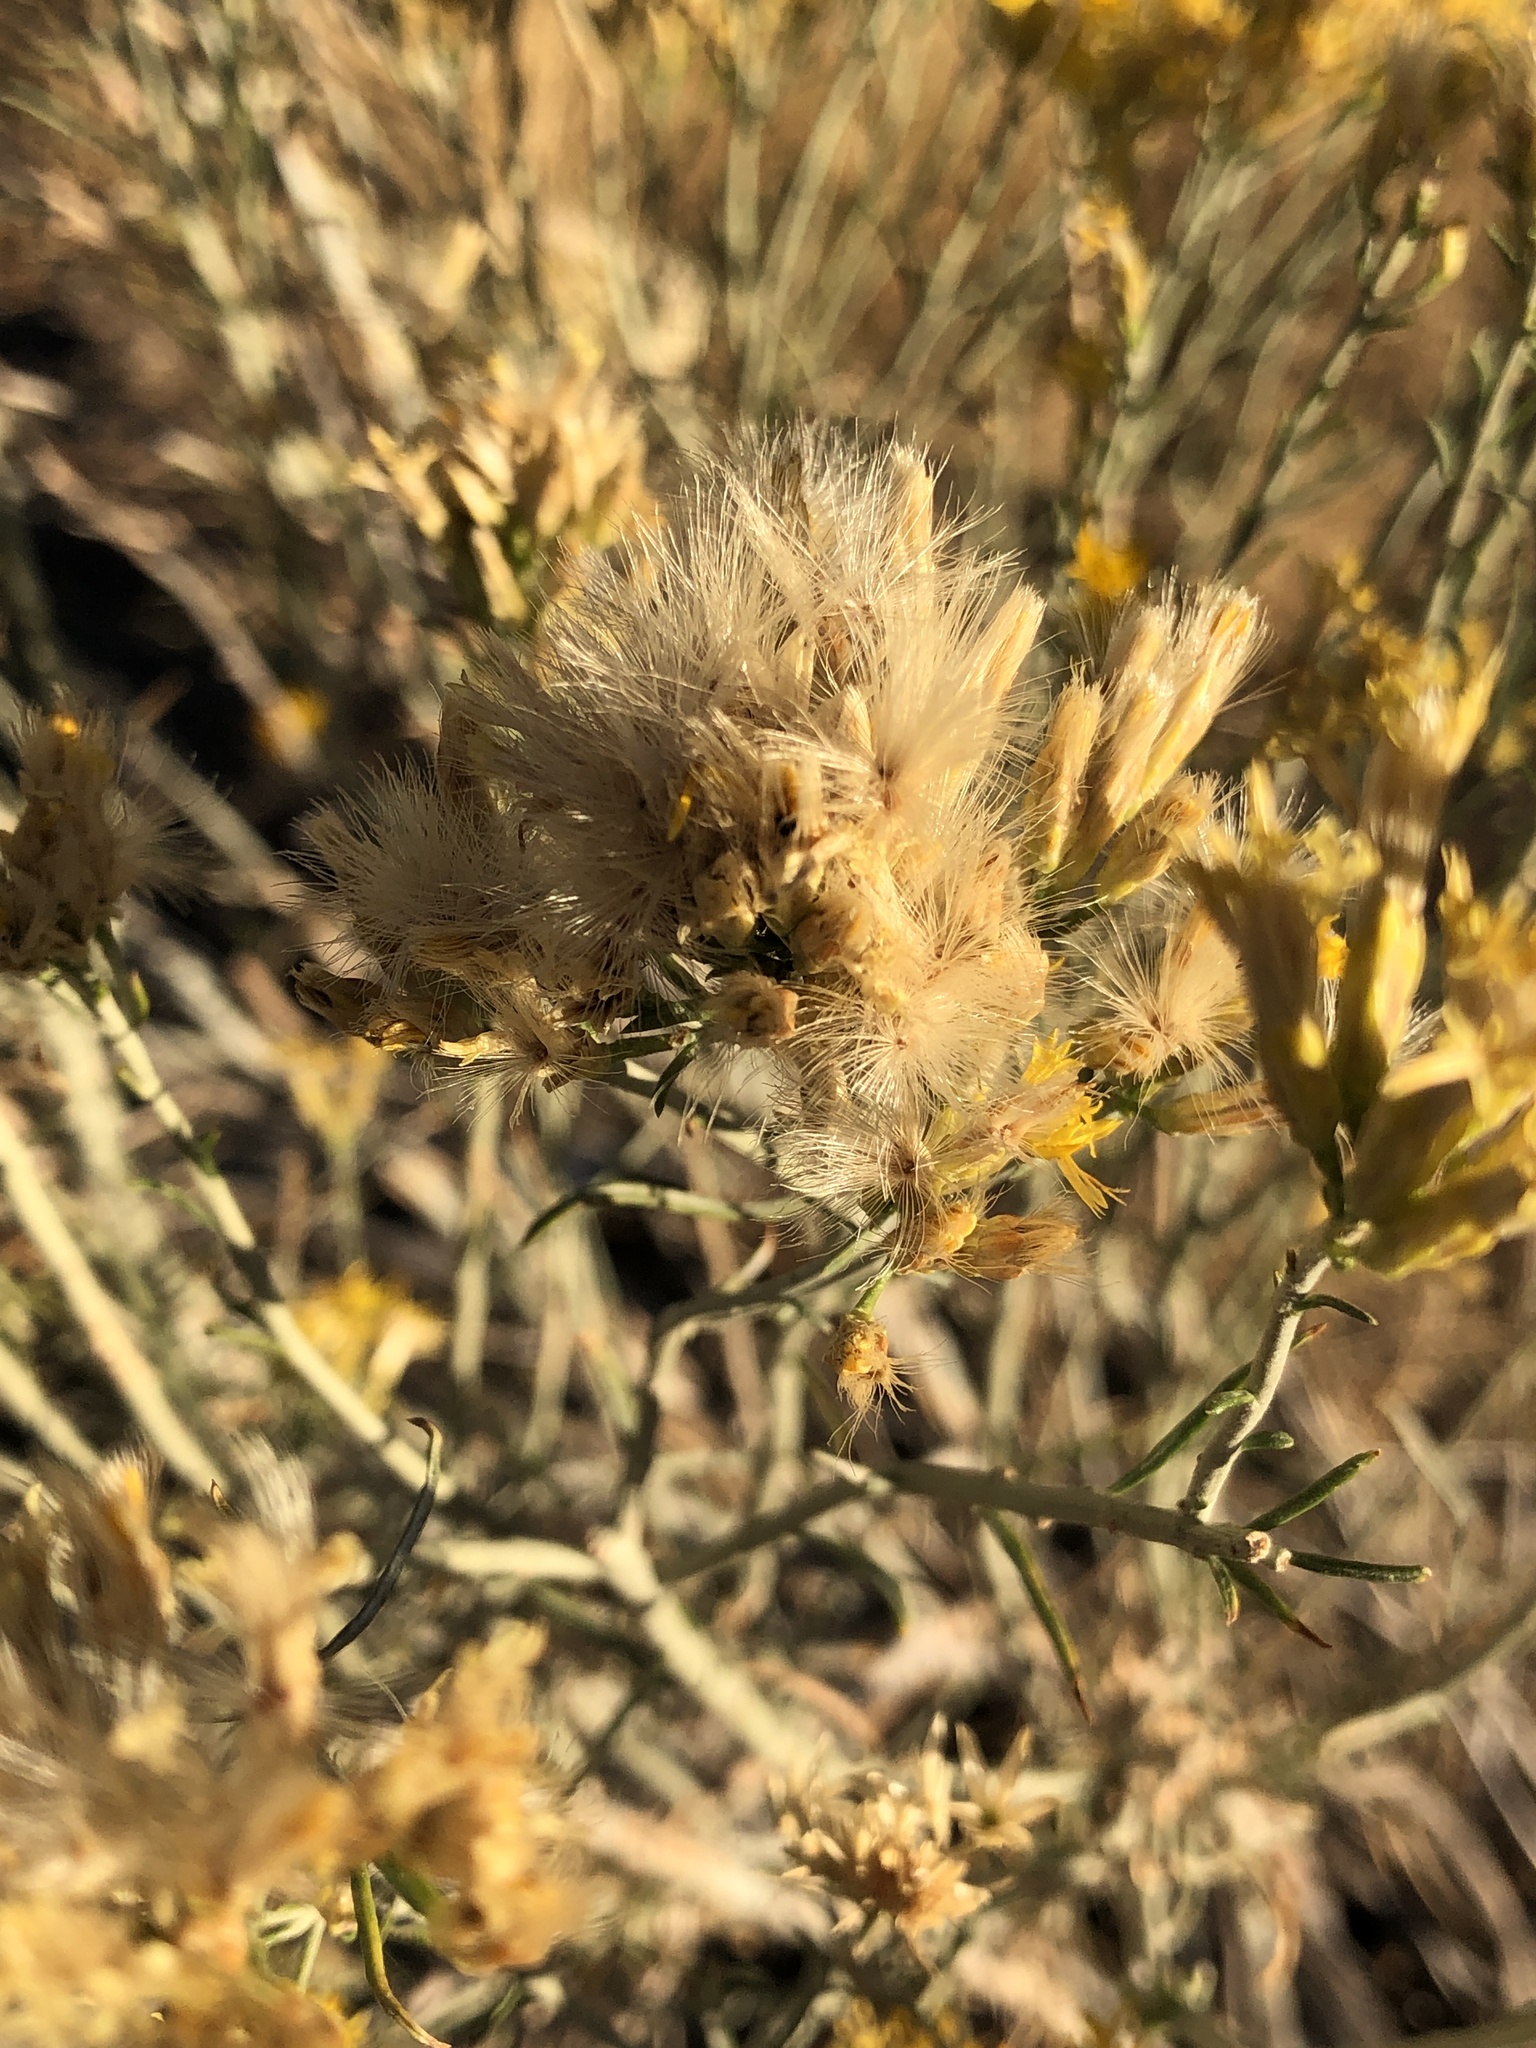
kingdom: Plantae
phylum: Tracheophyta
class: Magnoliopsida
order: Asterales
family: Asteraceae
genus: Ericameria
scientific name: Ericameria nauseosa
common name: Rubber rabbitbrush
